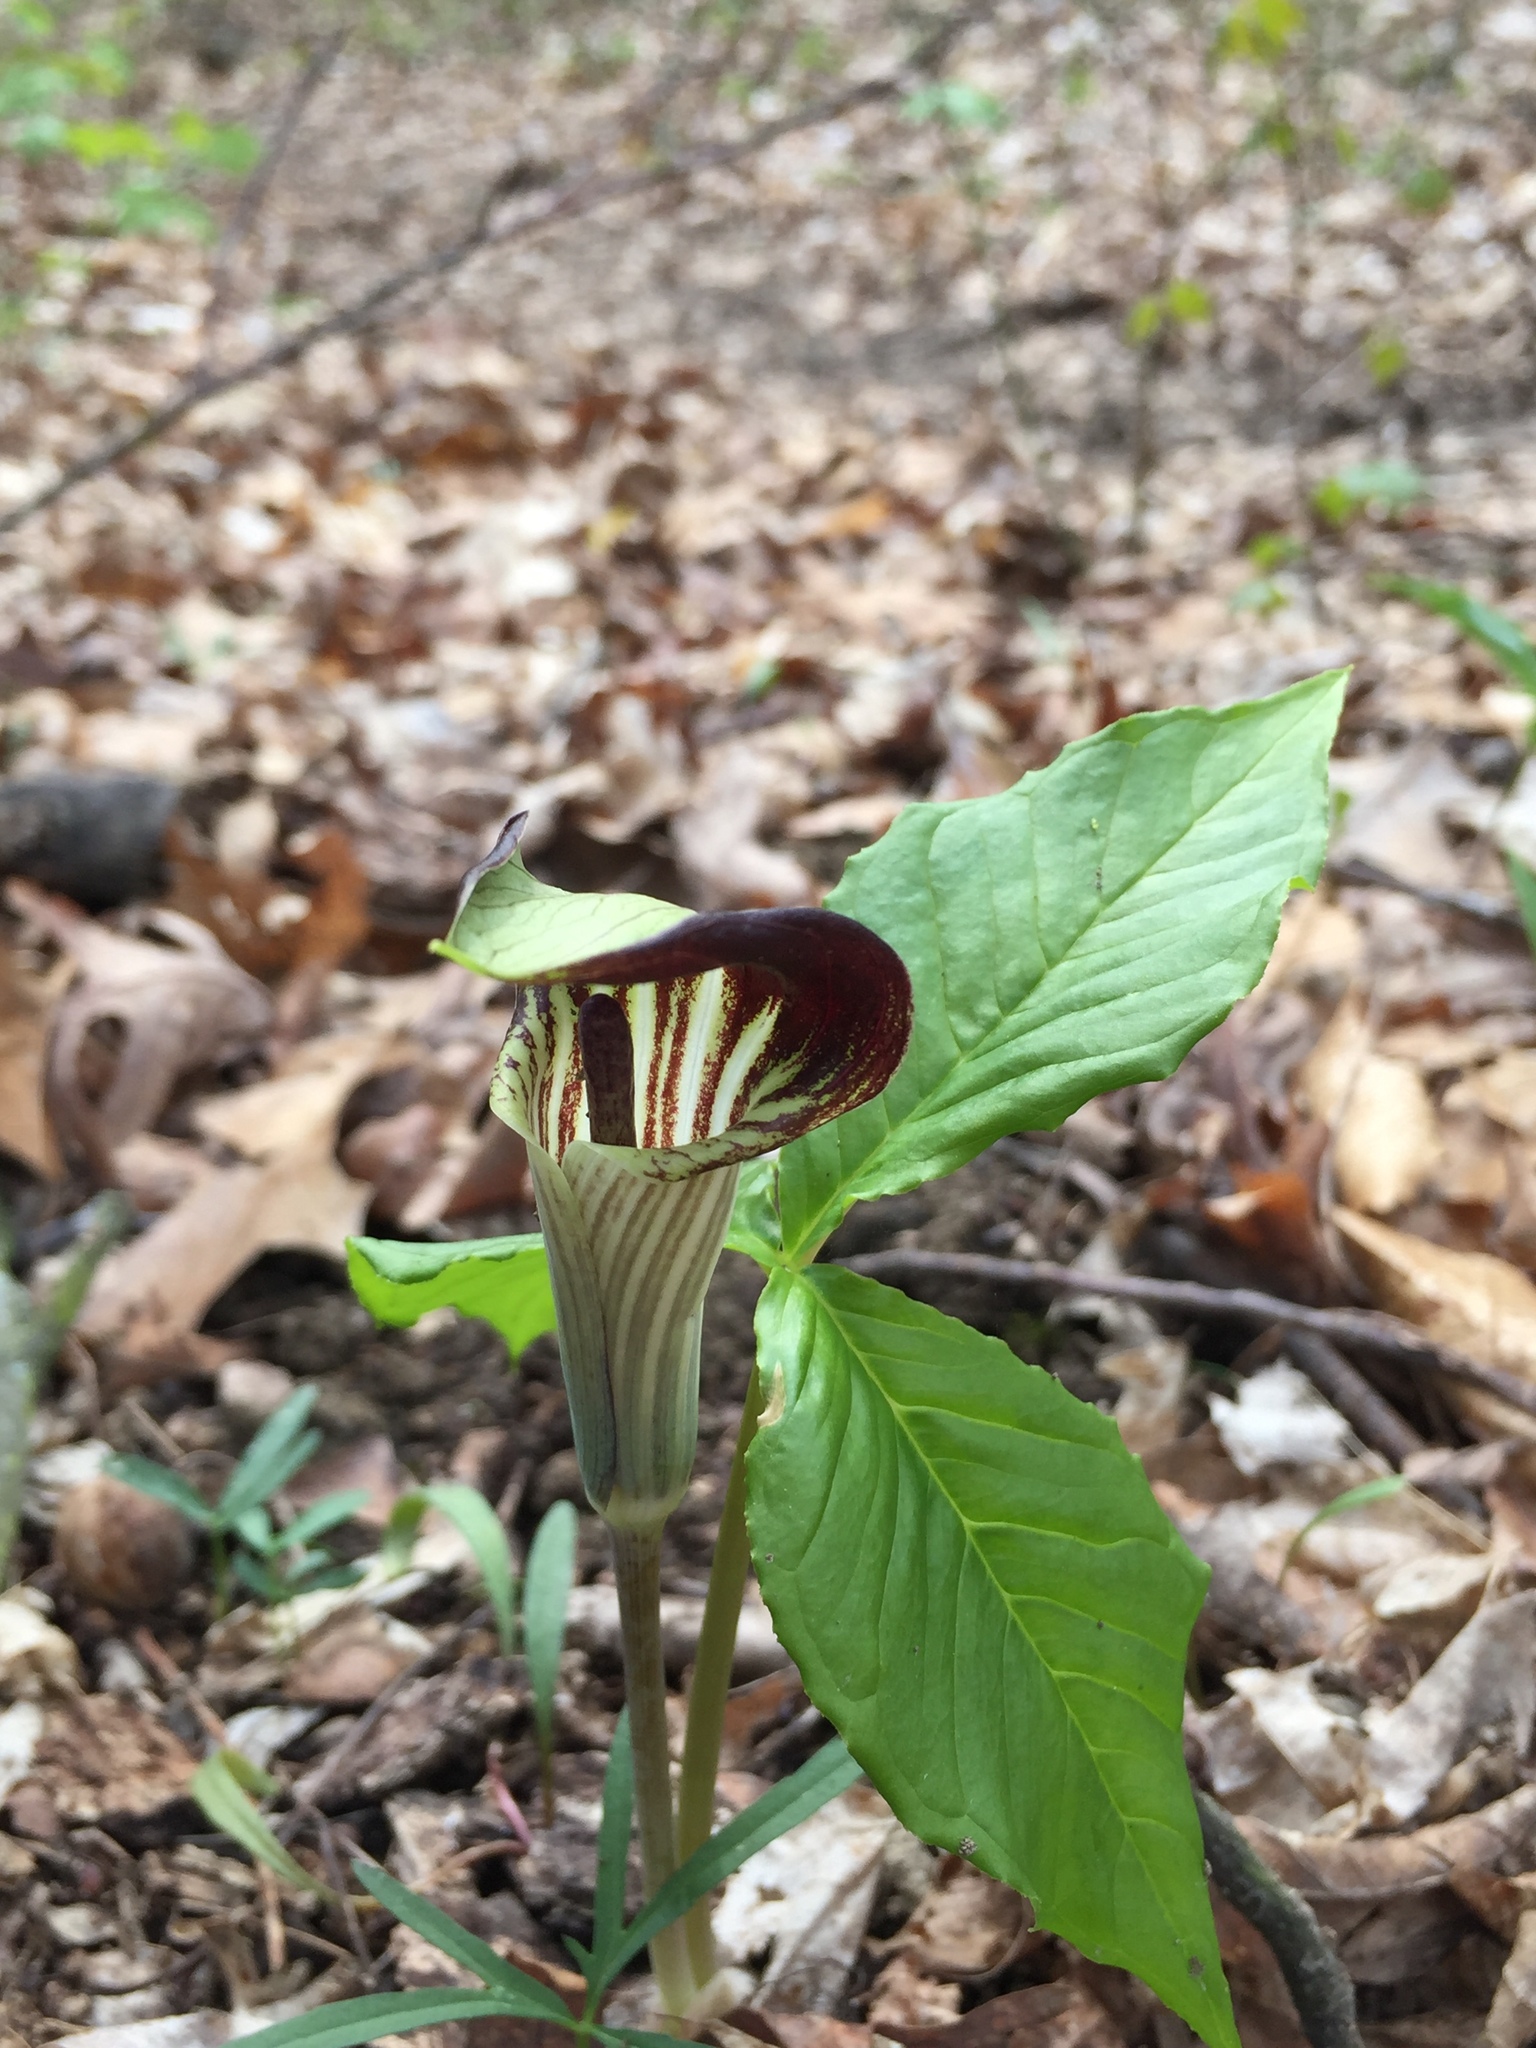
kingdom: Plantae
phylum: Tracheophyta
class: Liliopsida
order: Alismatales
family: Araceae
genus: Arisaema
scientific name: Arisaema triphyllum
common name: Jack-in-the-pulpit
